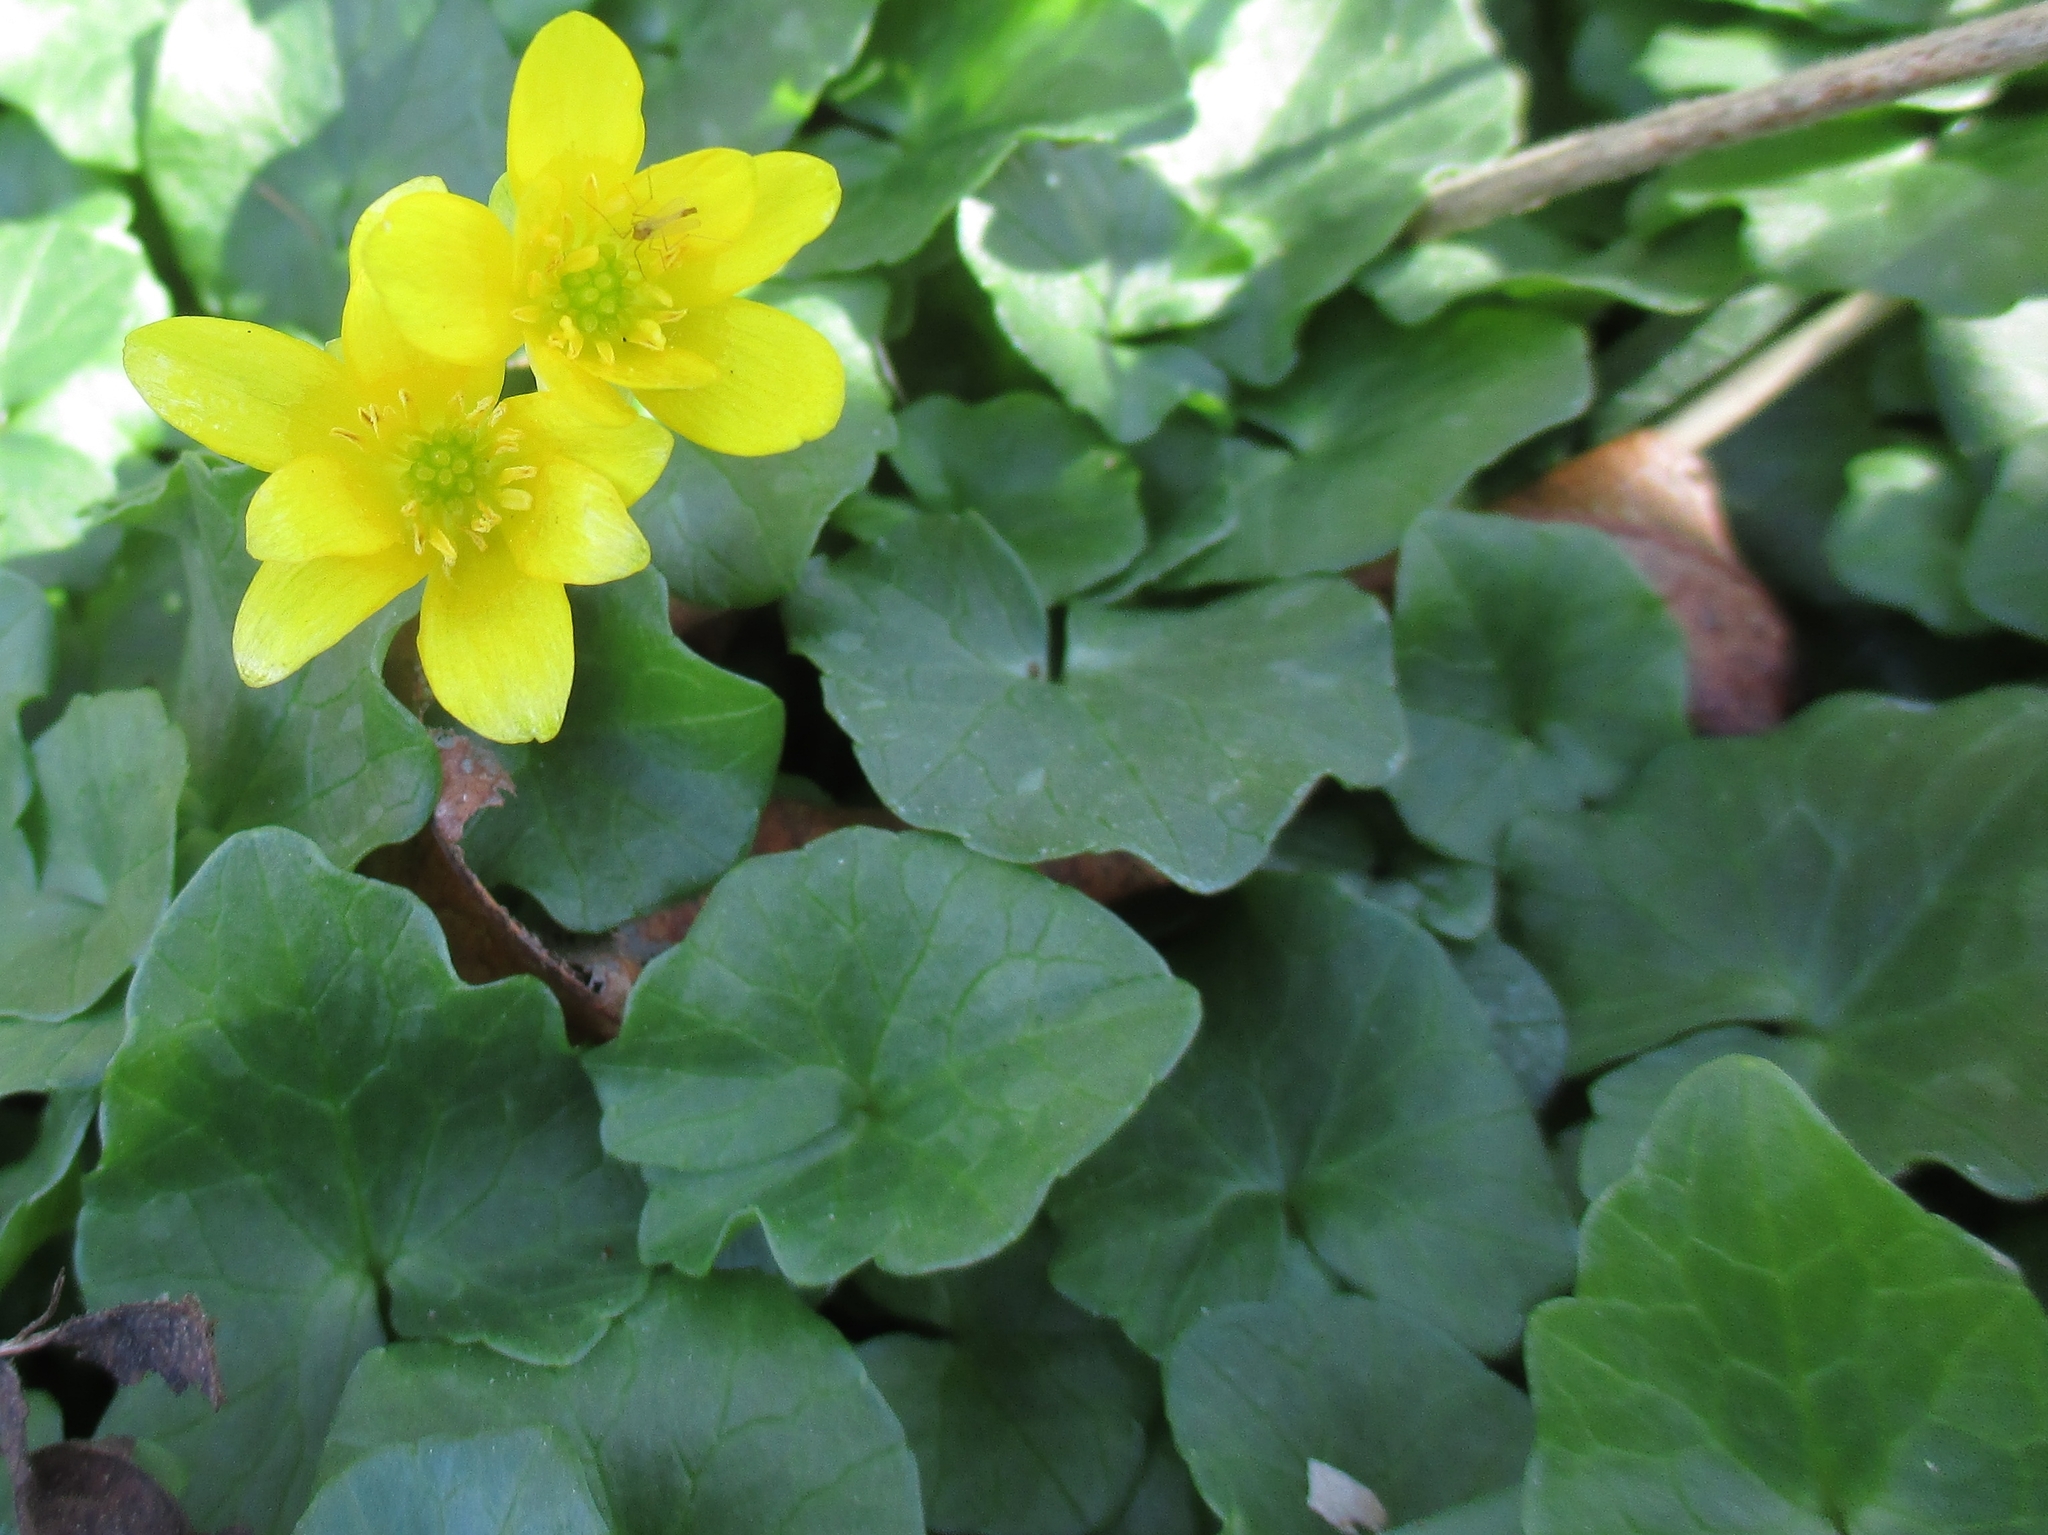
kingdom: Plantae
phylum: Tracheophyta
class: Magnoliopsida
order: Ranunculales
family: Ranunculaceae
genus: Ficaria
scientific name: Ficaria verna
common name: Lesser celandine
